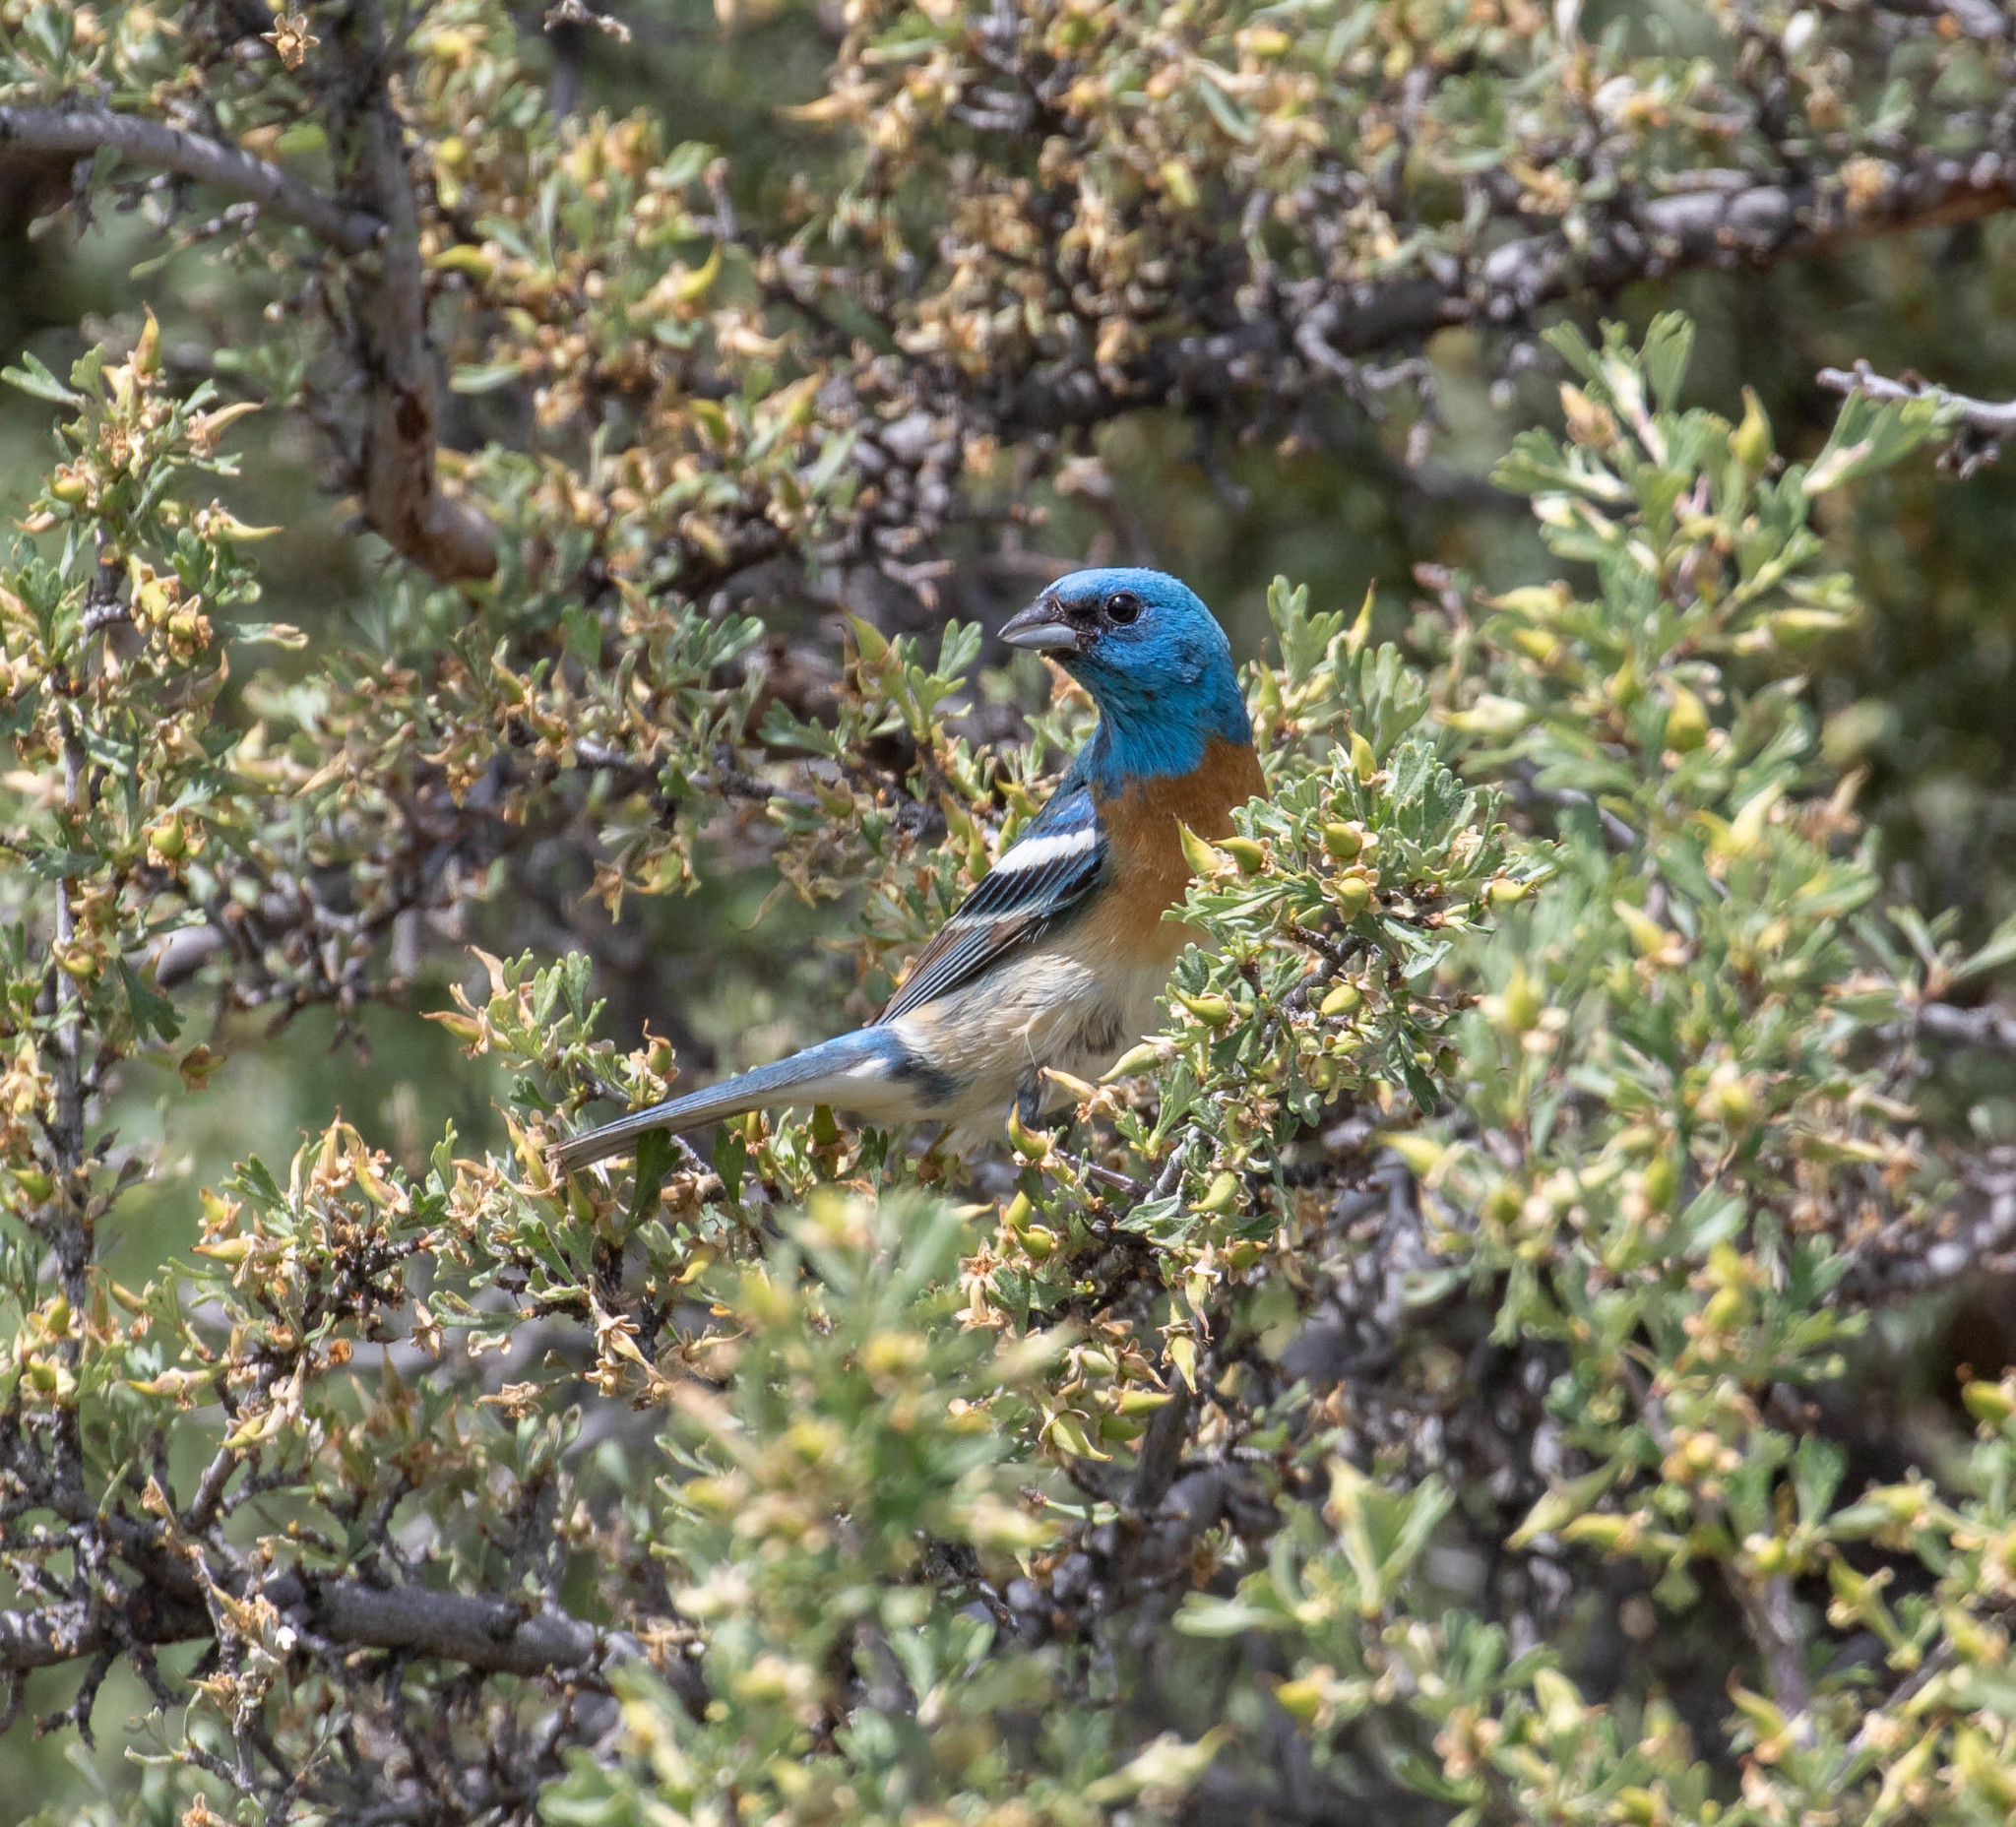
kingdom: Animalia
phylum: Chordata
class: Aves
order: Passeriformes
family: Cardinalidae
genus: Passerina
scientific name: Passerina amoena
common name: Lazuli bunting
